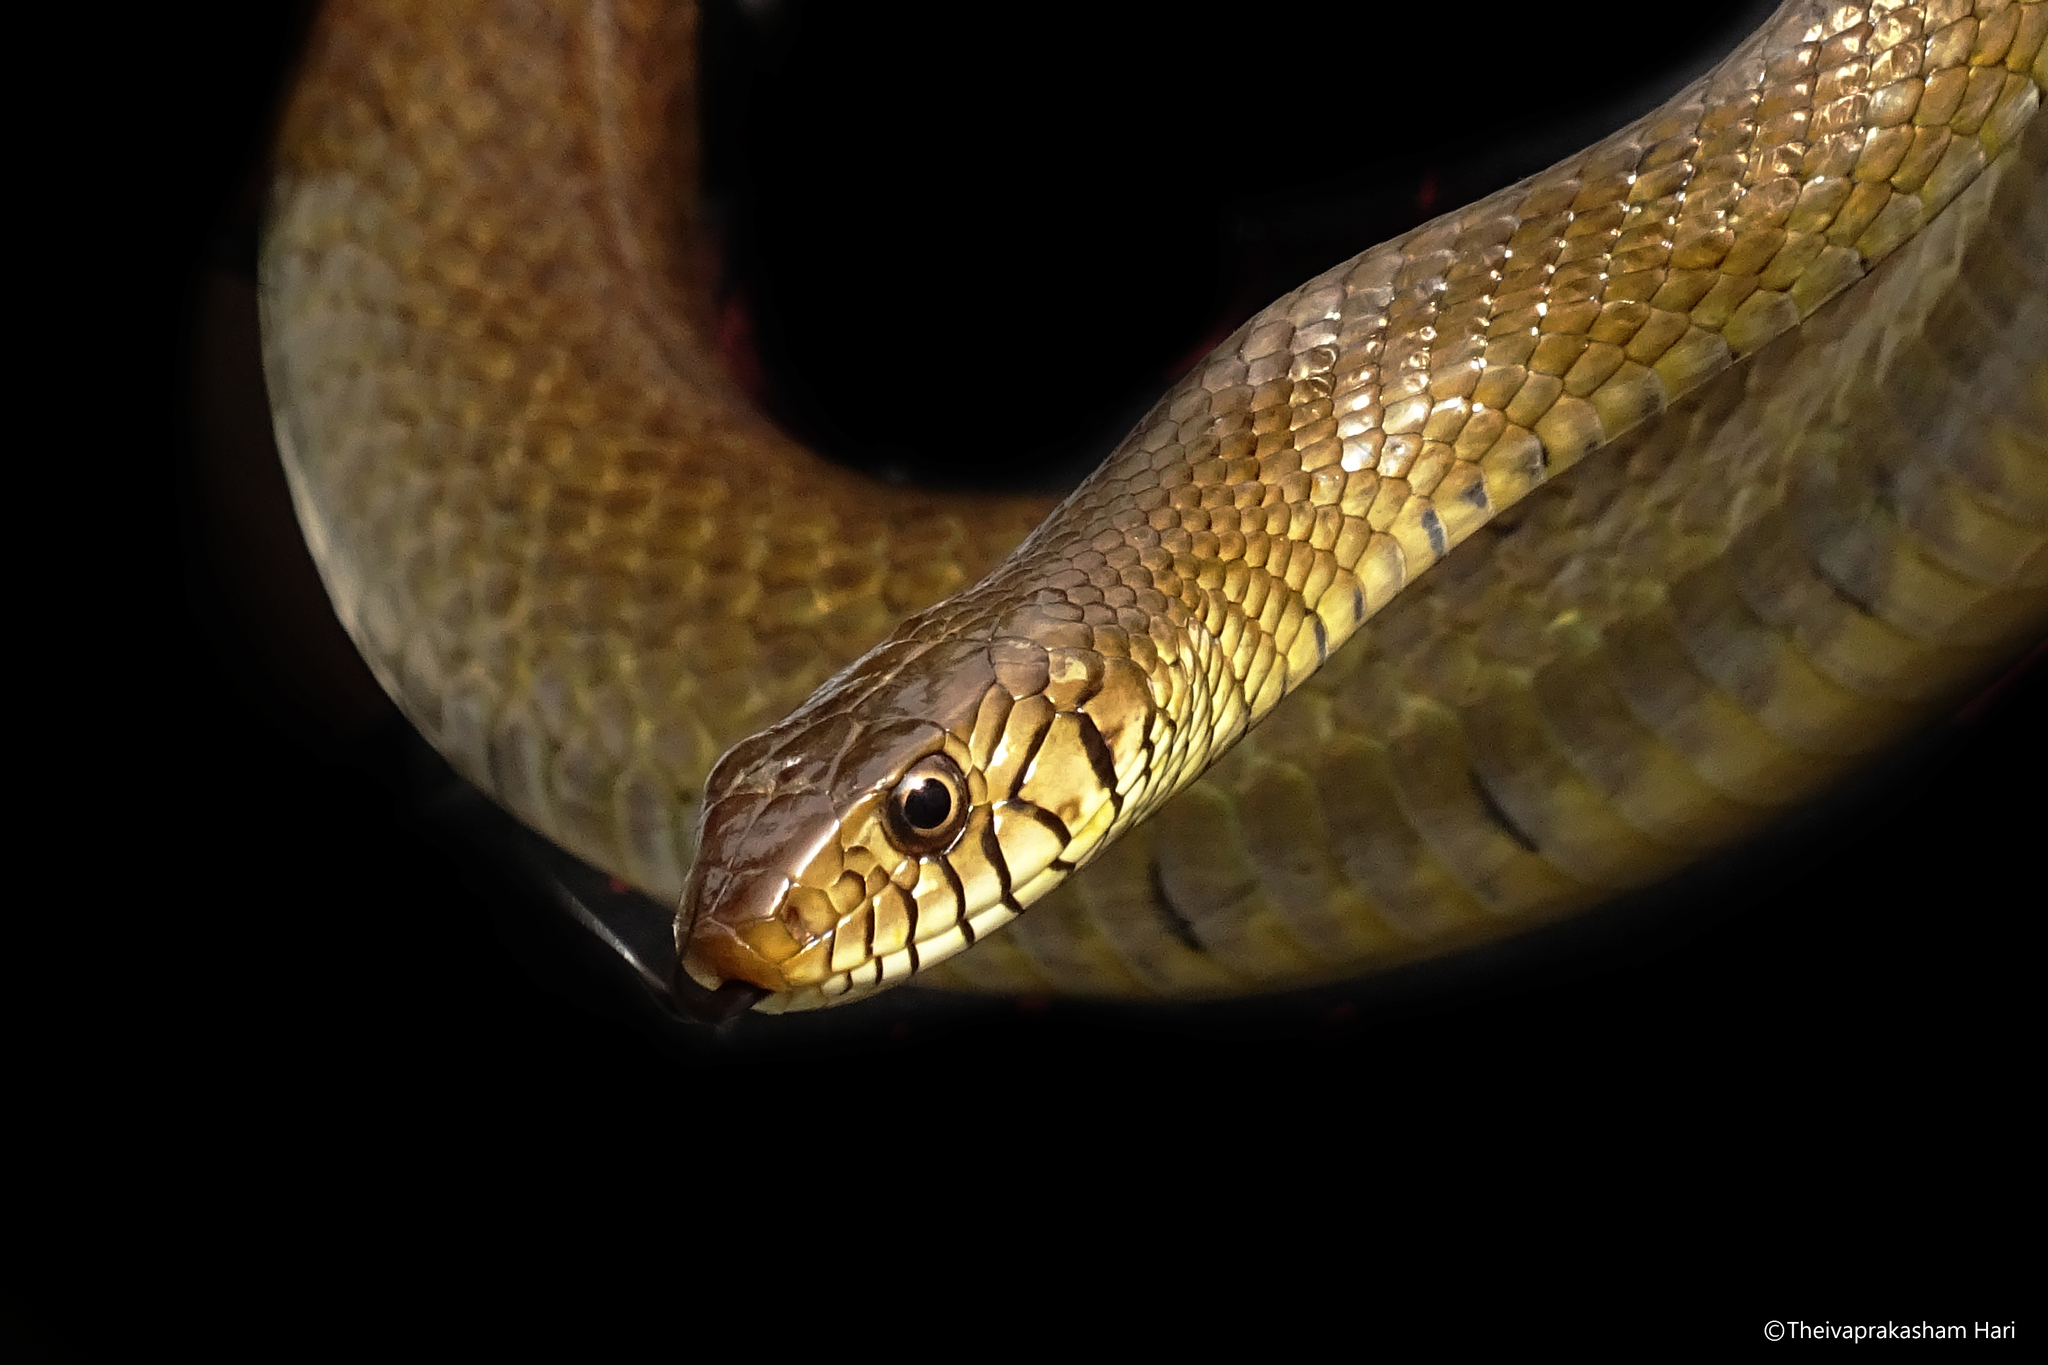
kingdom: Animalia
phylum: Chordata
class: Squamata
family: Colubridae
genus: Ptyas
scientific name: Ptyas mucosa
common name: Oriental ratsnake
